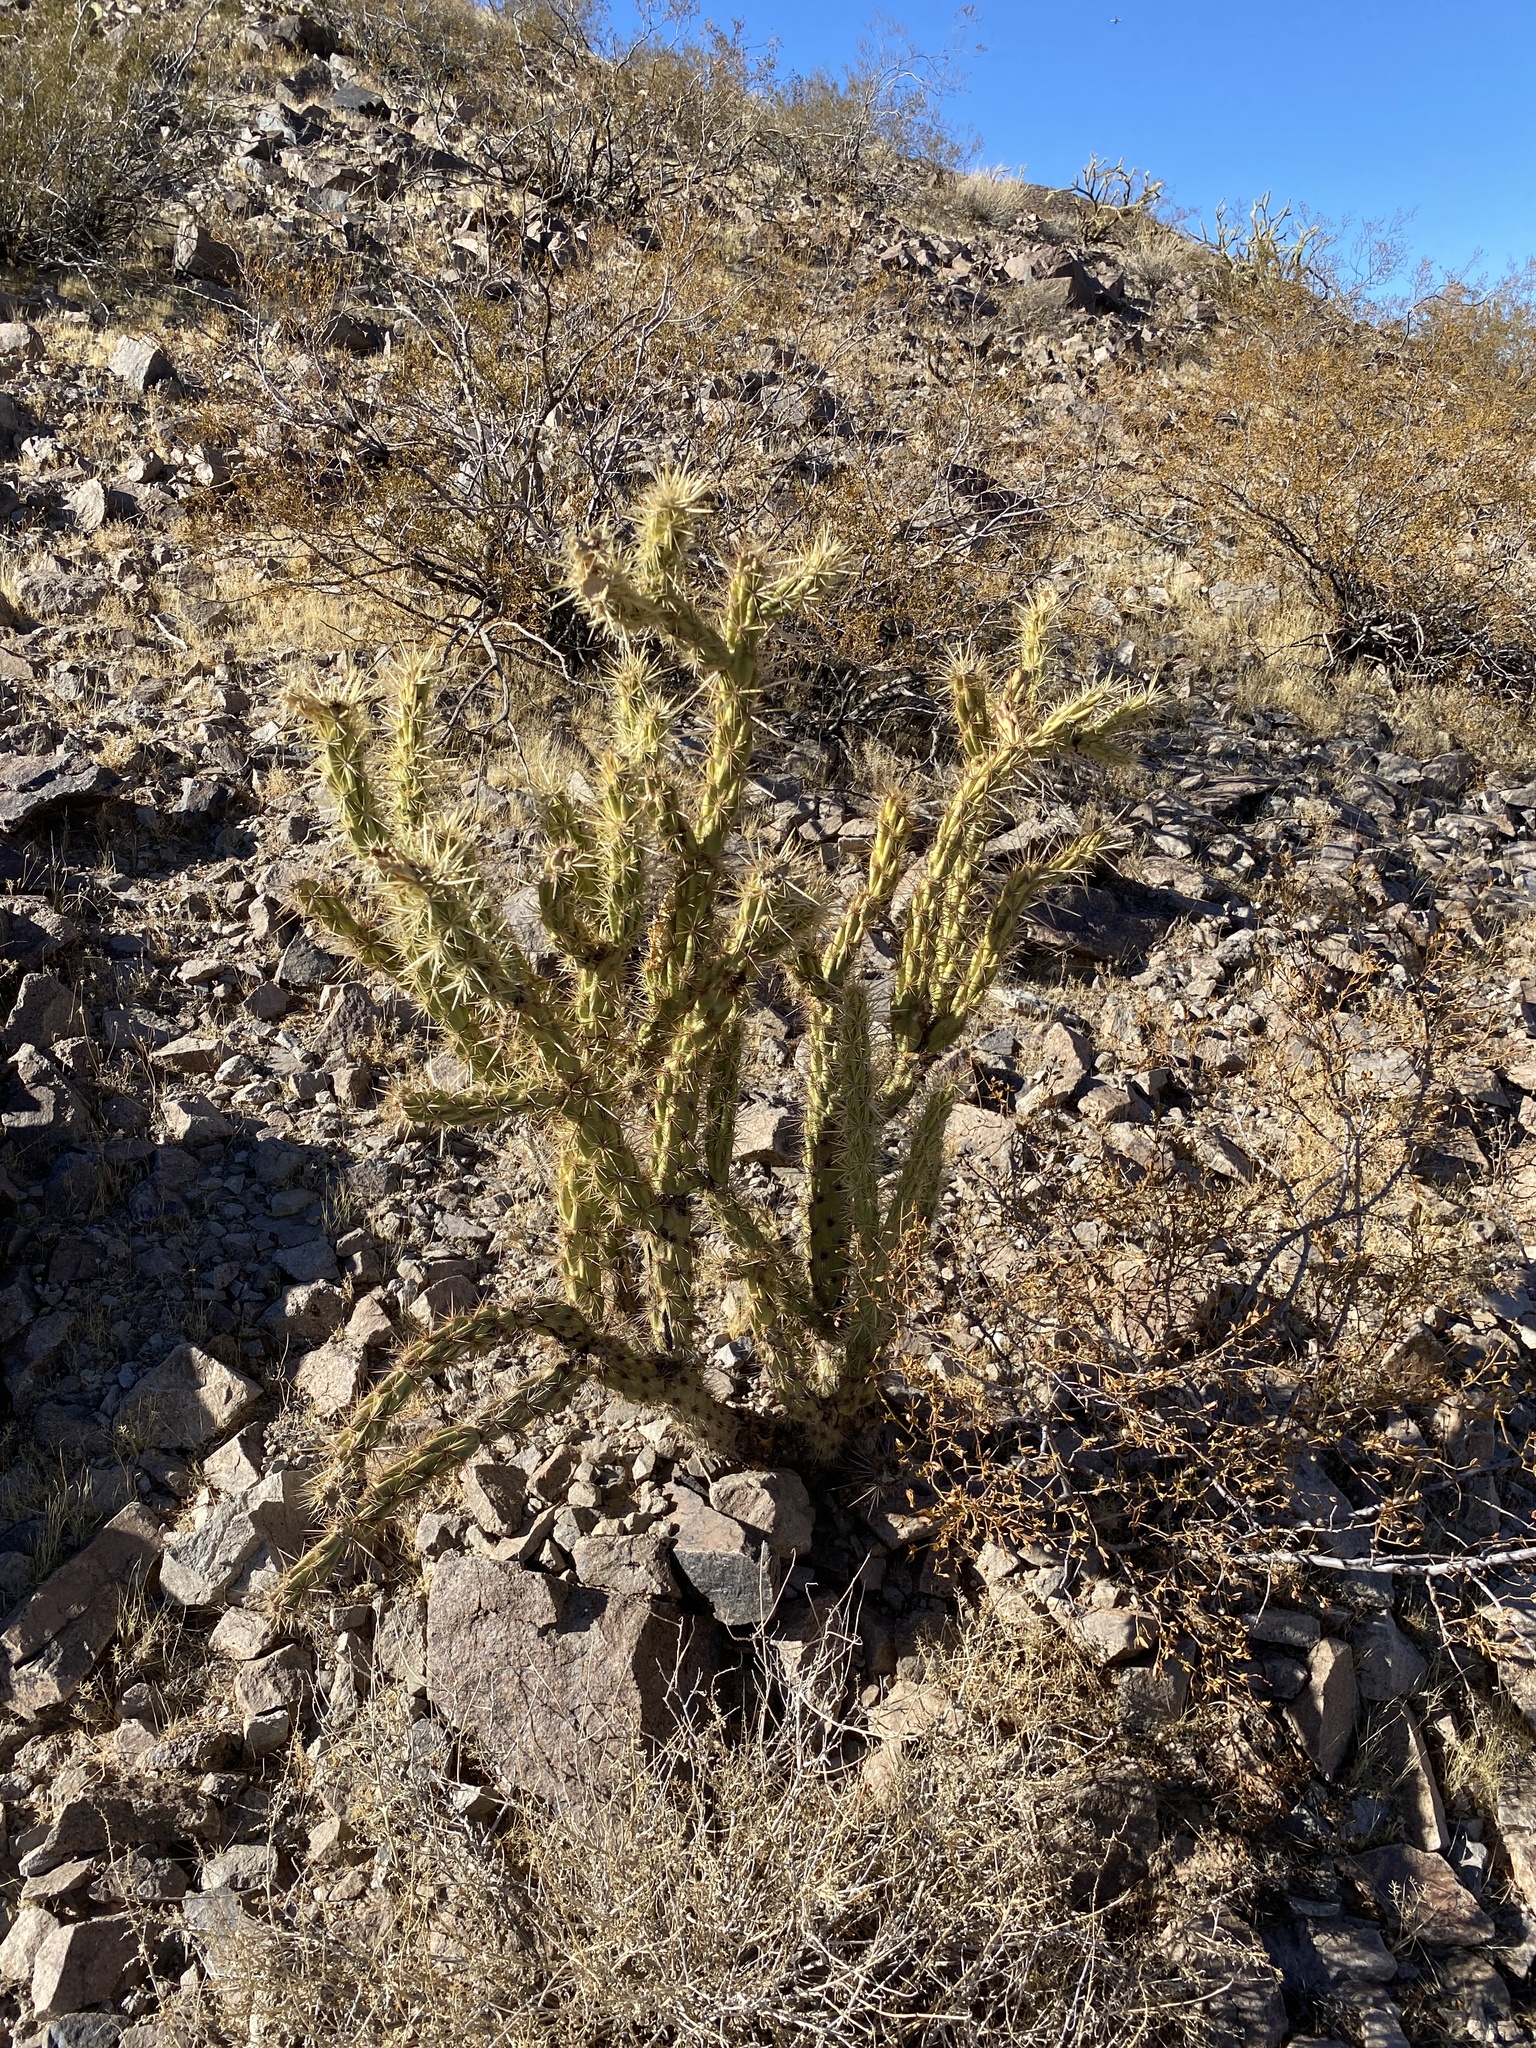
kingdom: Plantae
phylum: Tracheophyta
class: Magnoliopsida
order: Caryophyllales
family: Cactaceae
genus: Cylindropuntia
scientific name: Cylindropuntia acanthocarpa
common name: Buckhorn cholla
